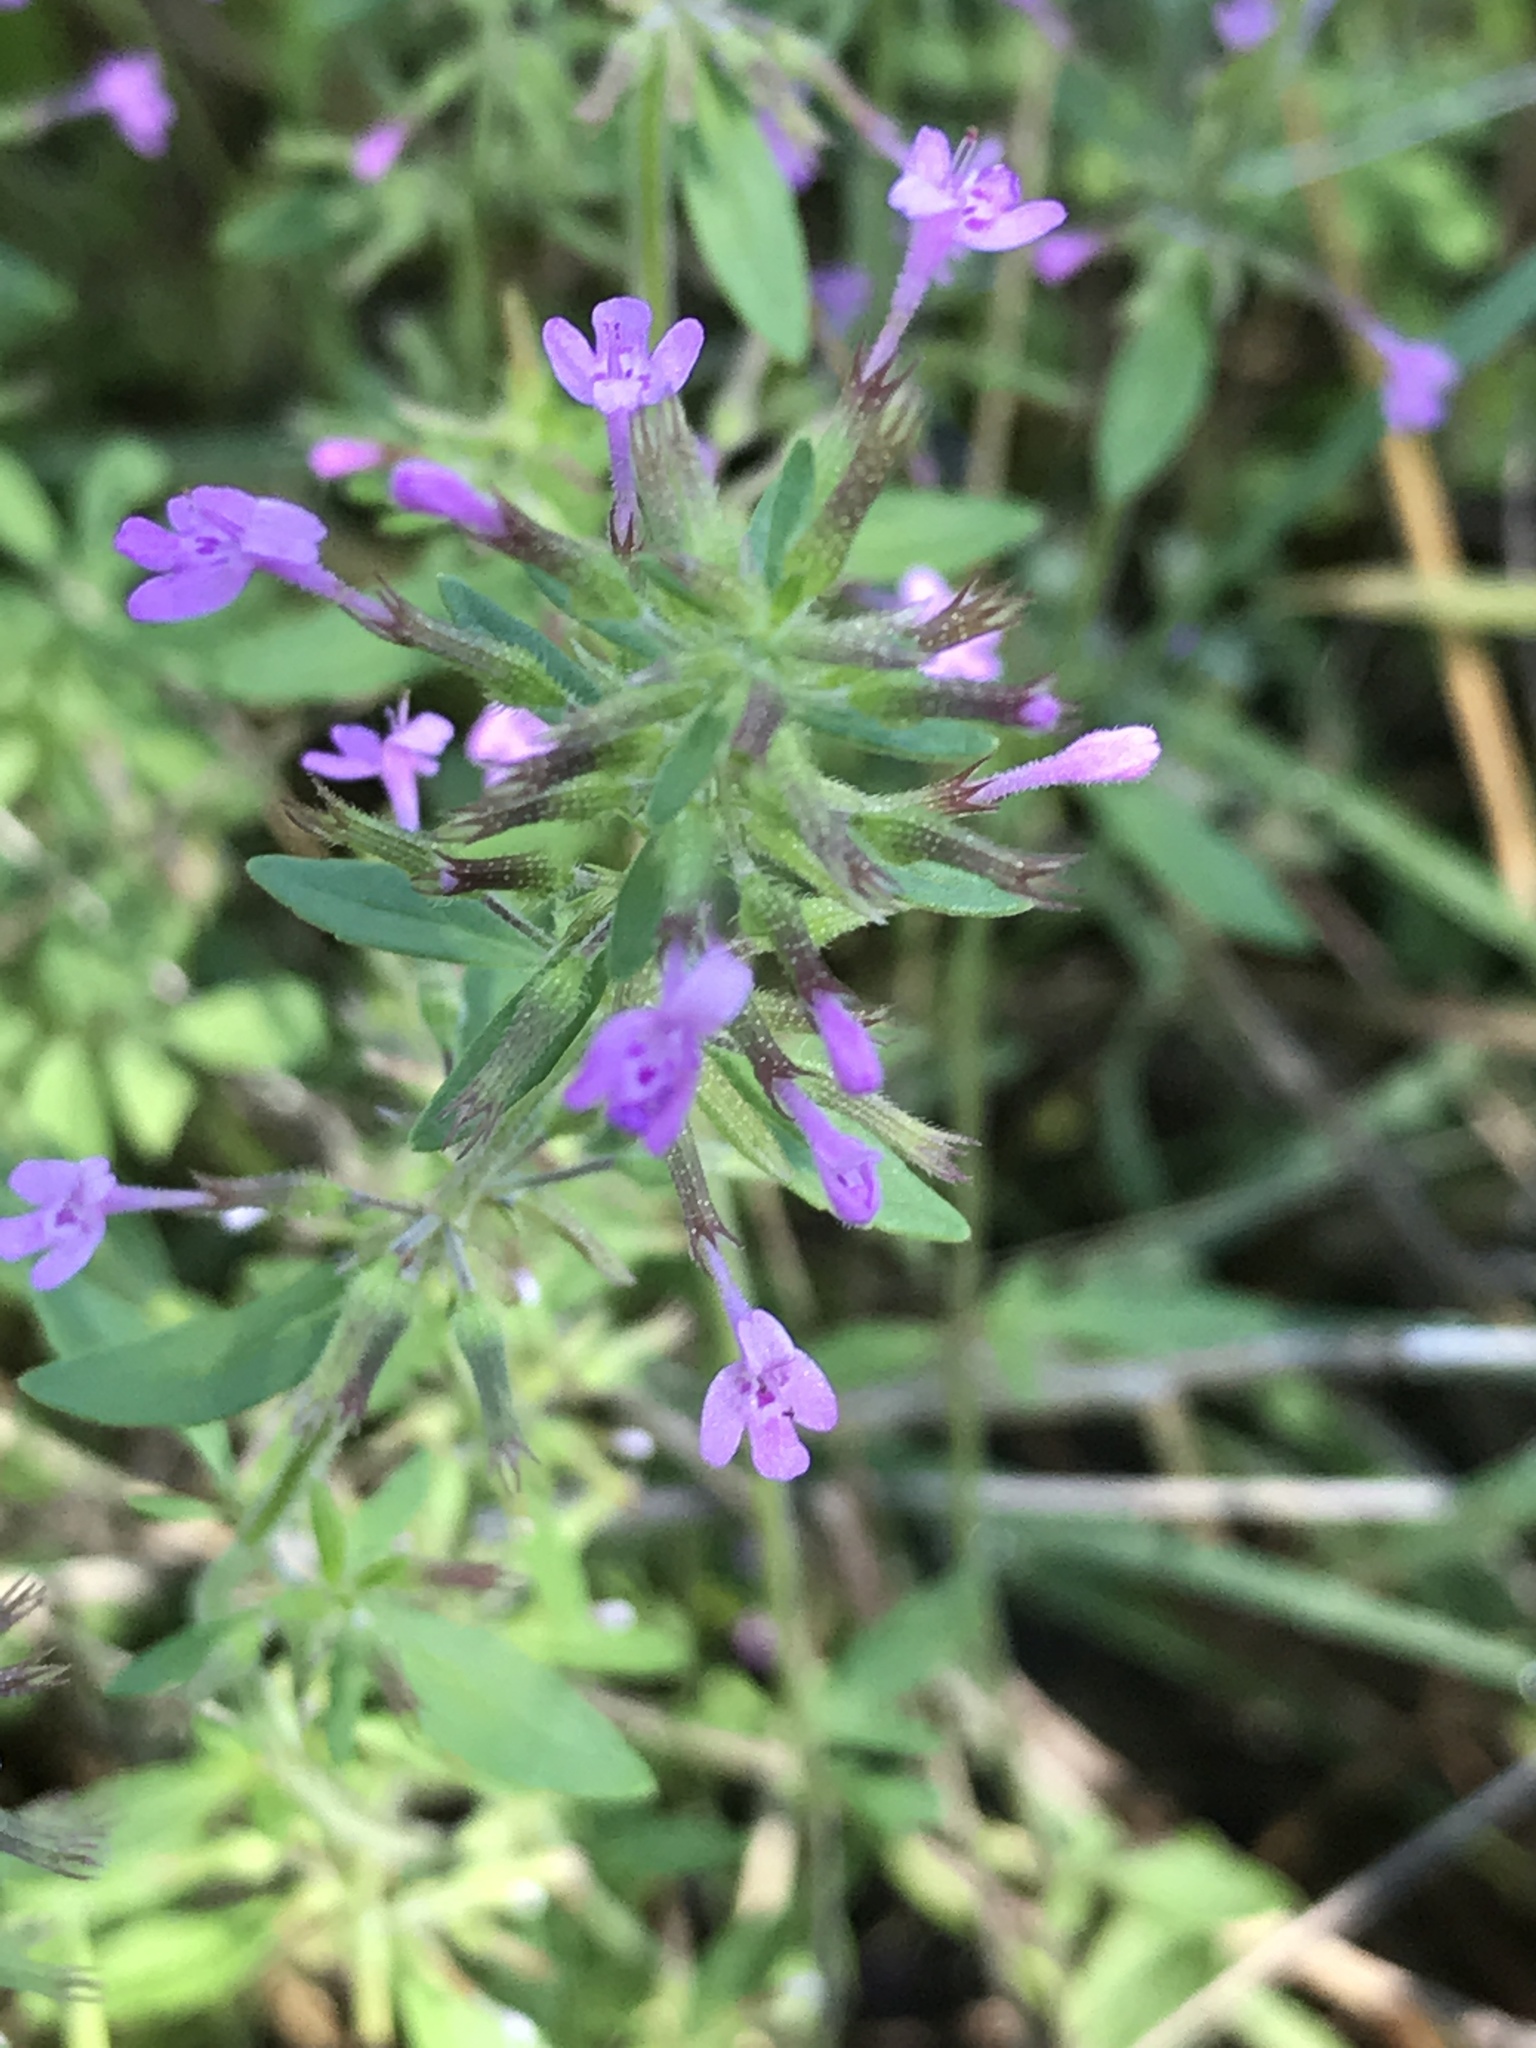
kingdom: Plantae
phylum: Tracheophyta
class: Magnoliopsida
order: Lamiales
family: Lamiaceae
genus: Hedeoma
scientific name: Hedeoma acinoides
